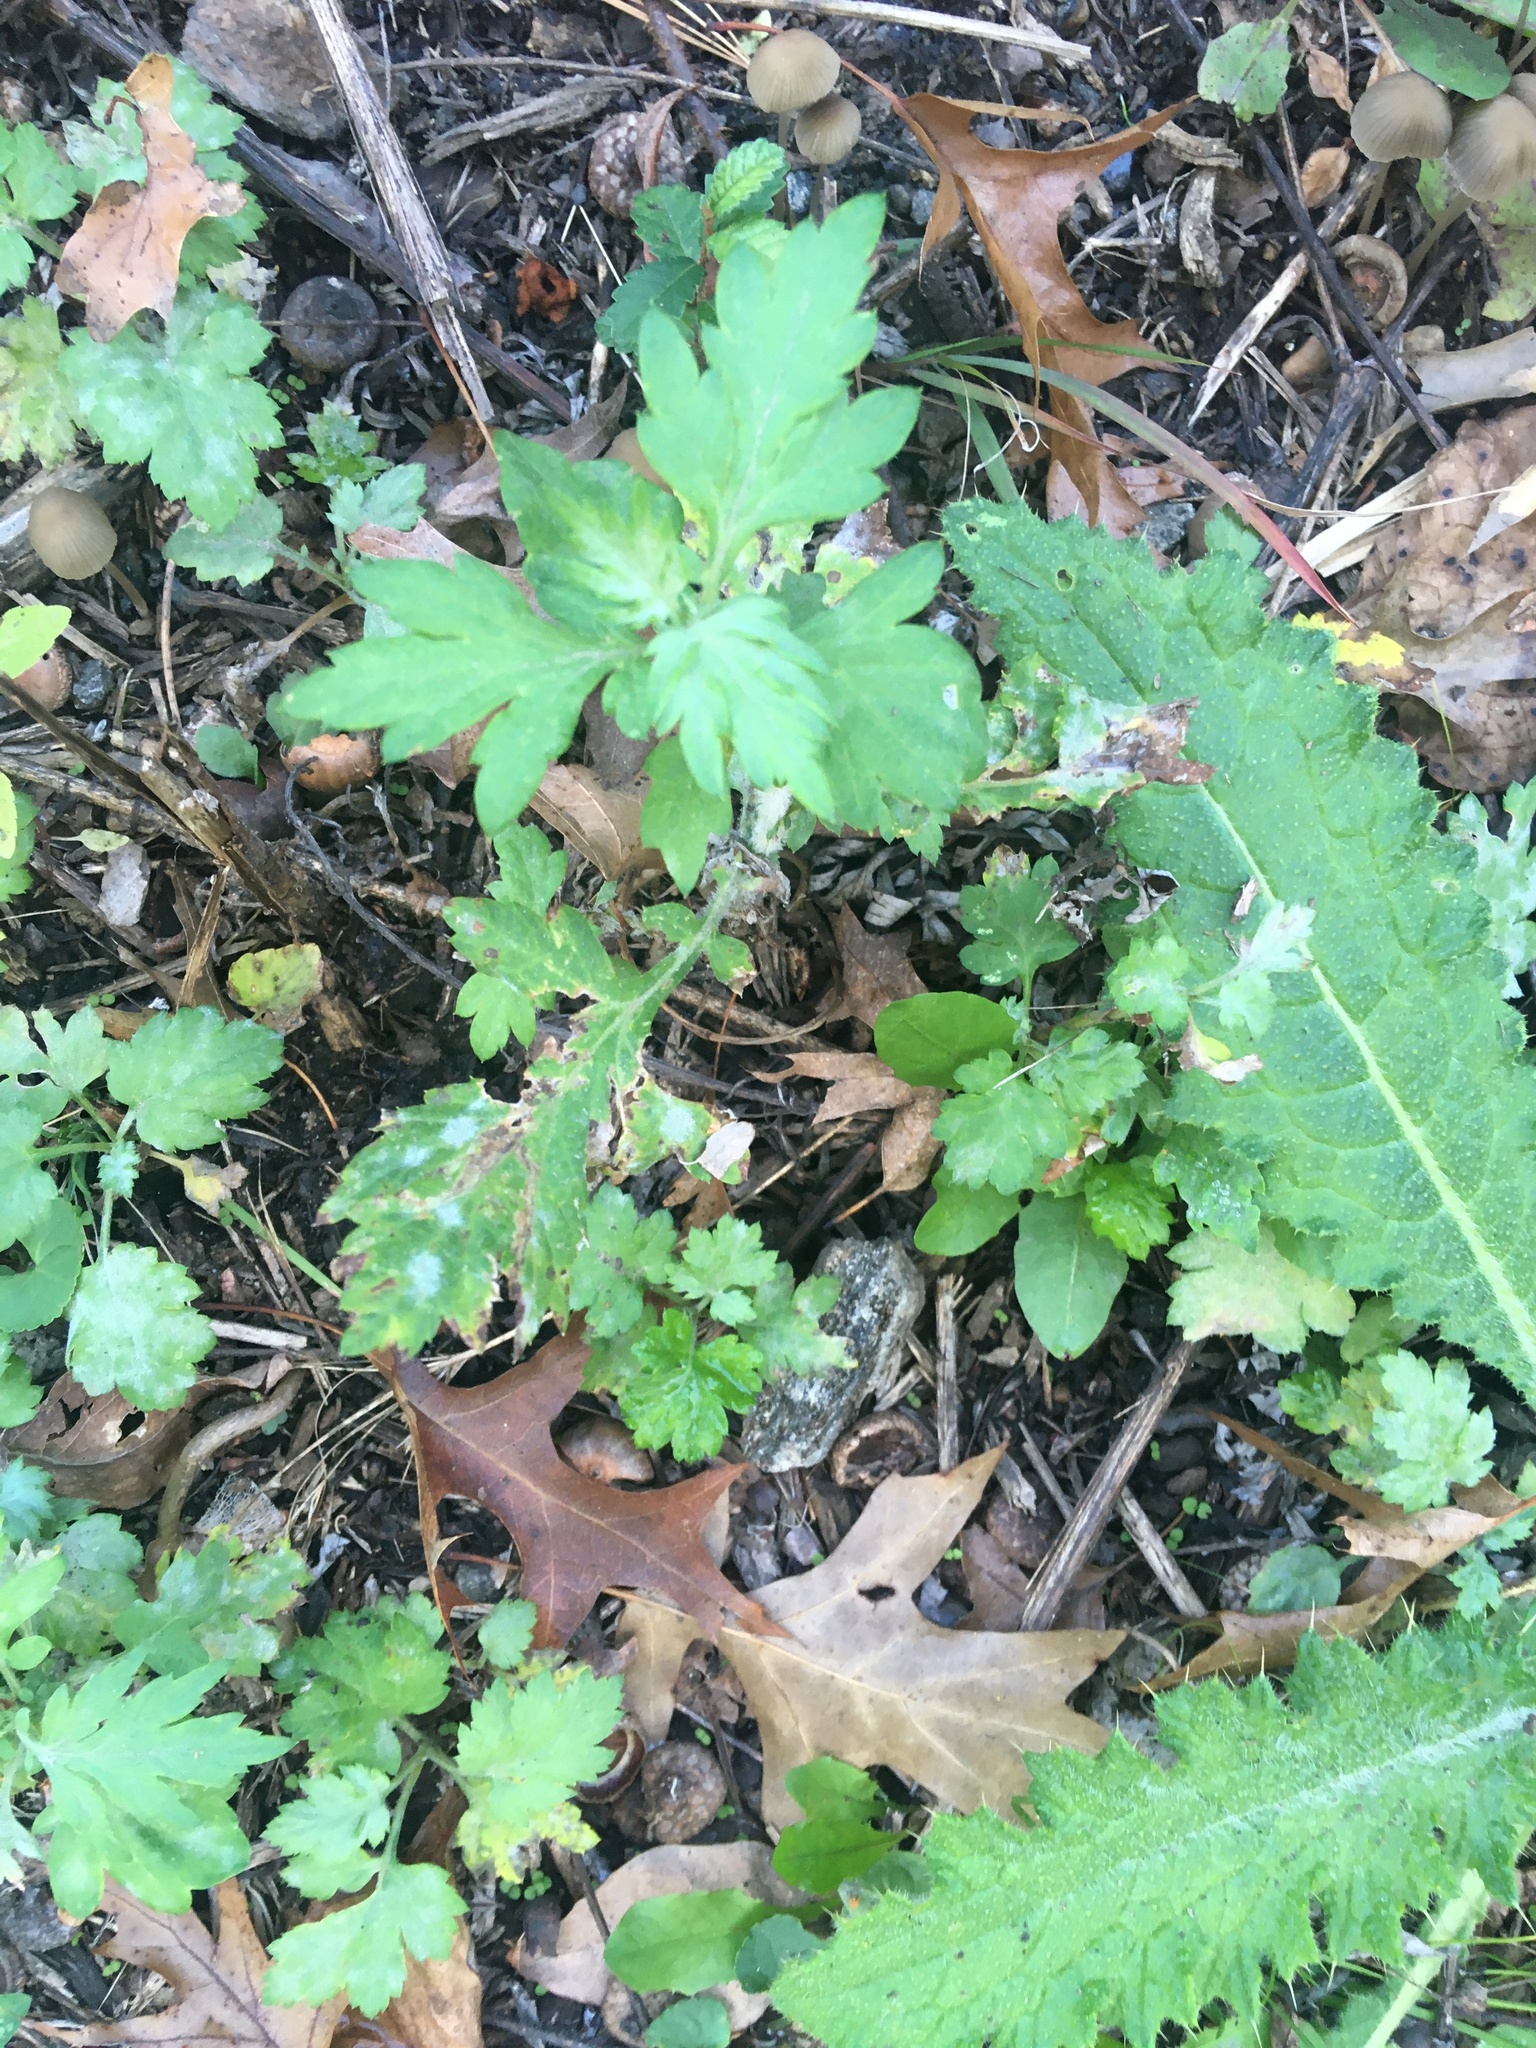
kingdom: Plantae
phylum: Tracheophyta
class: Magnoliopsida
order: Asterales
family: Asteraceae
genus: Artemisia
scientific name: Artemisia vulgaris
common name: Mugwort
